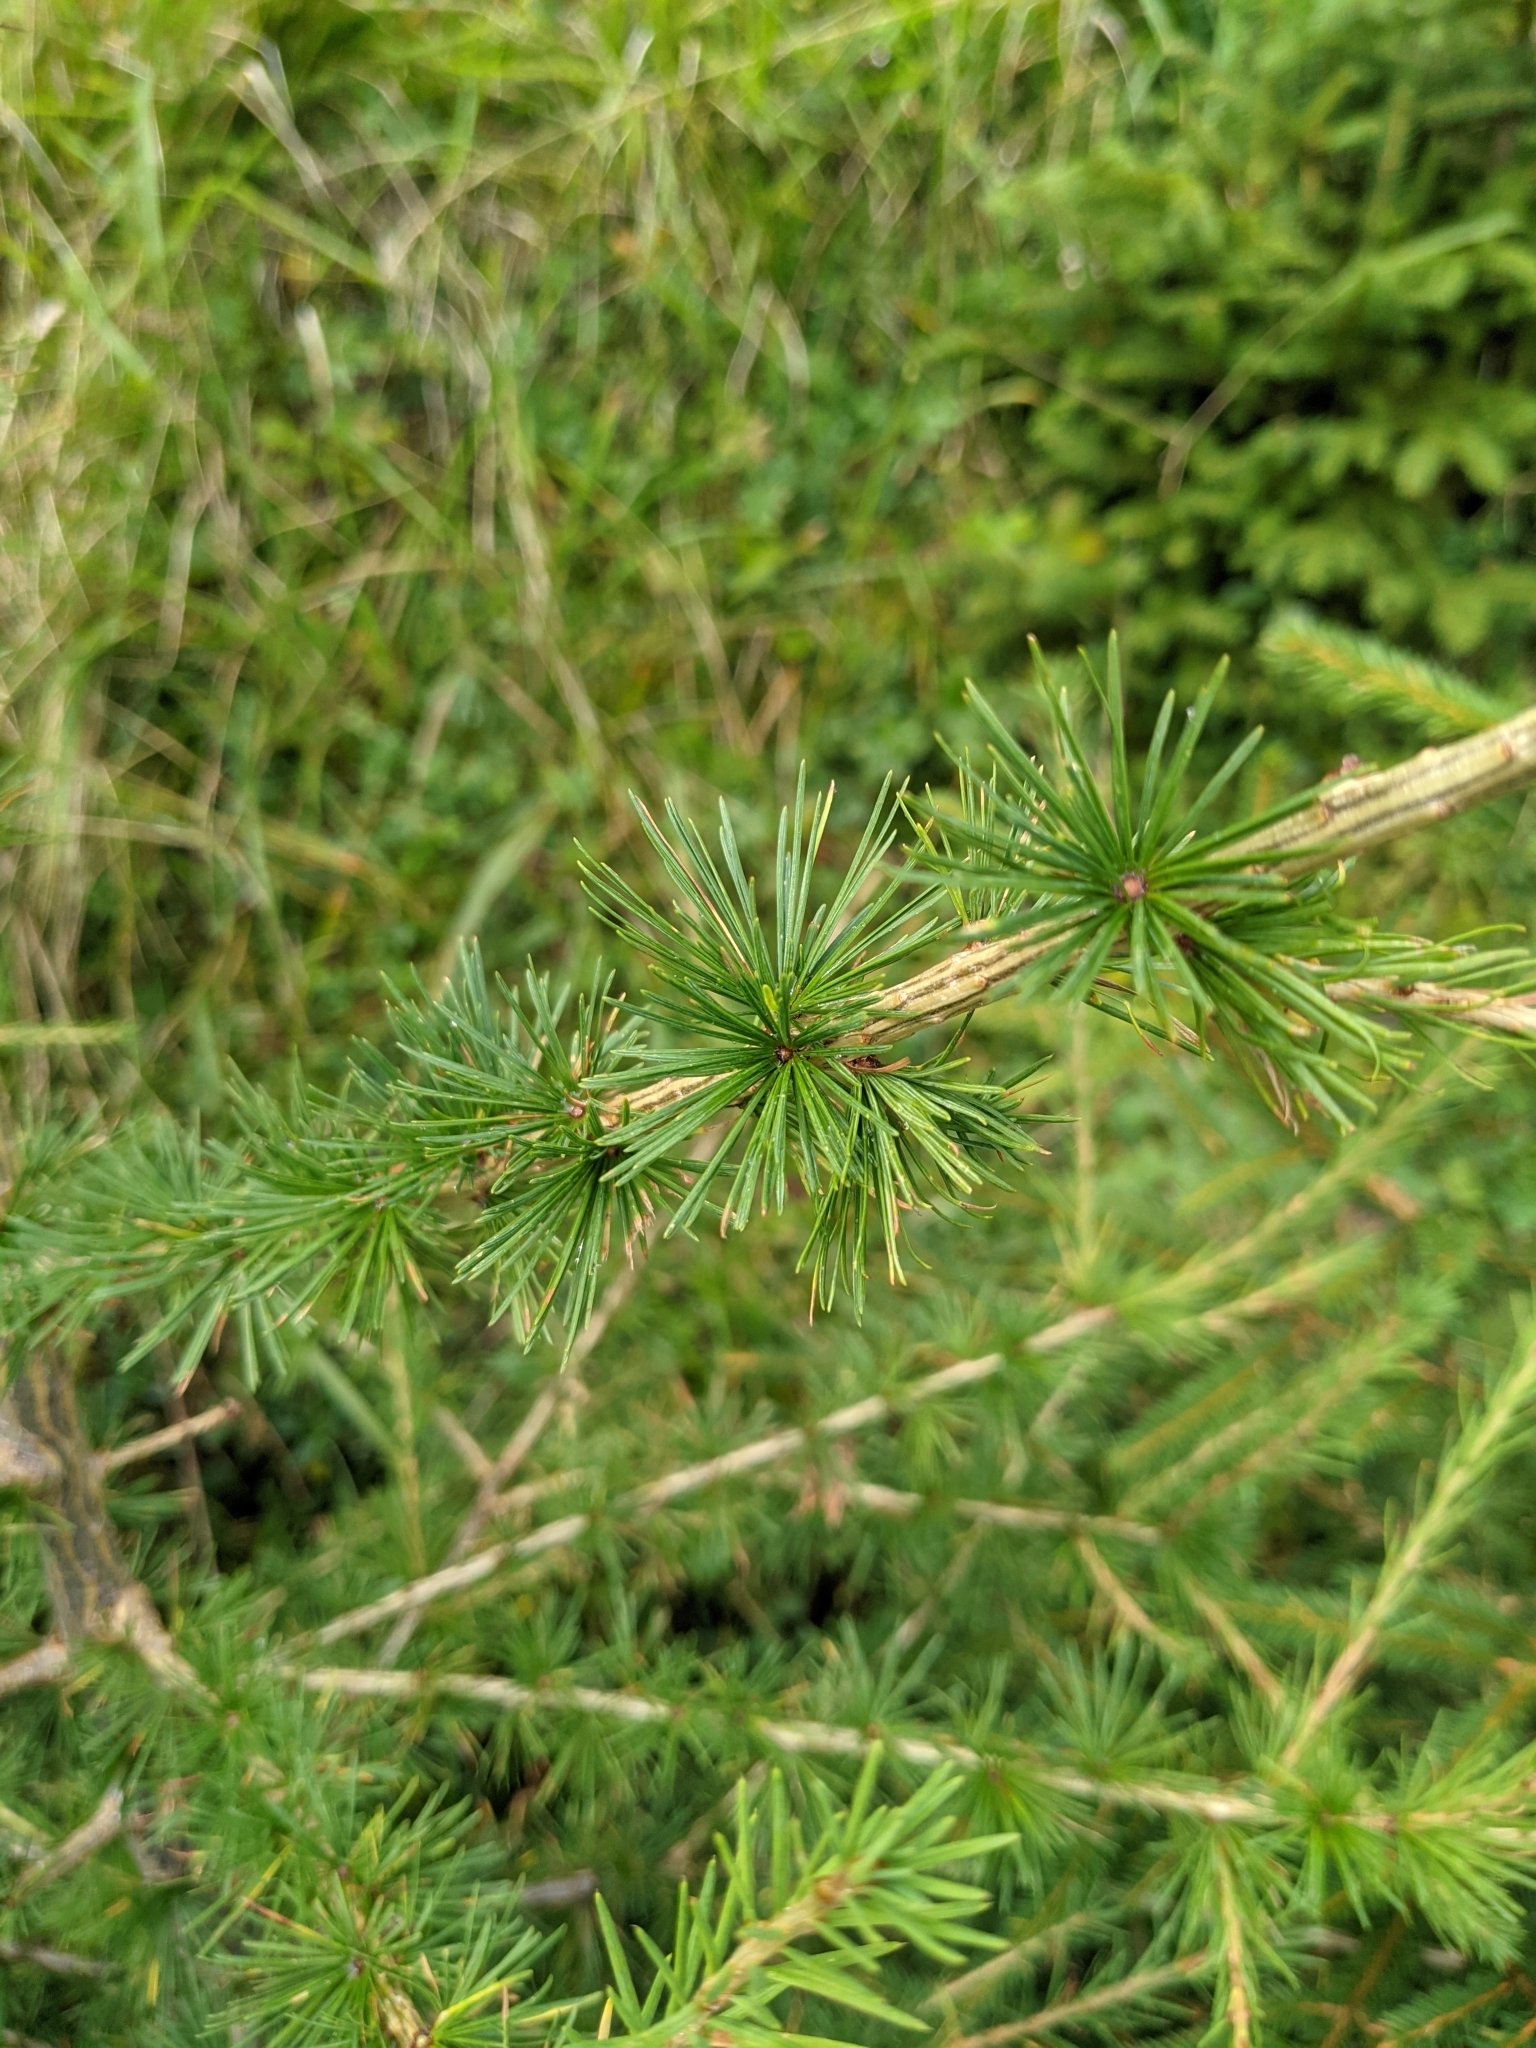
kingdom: Plantae
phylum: Tracheophyta
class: Pinopsida
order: Pinales
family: Pinaceae
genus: Larix
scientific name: Larix decidua
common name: European larch
